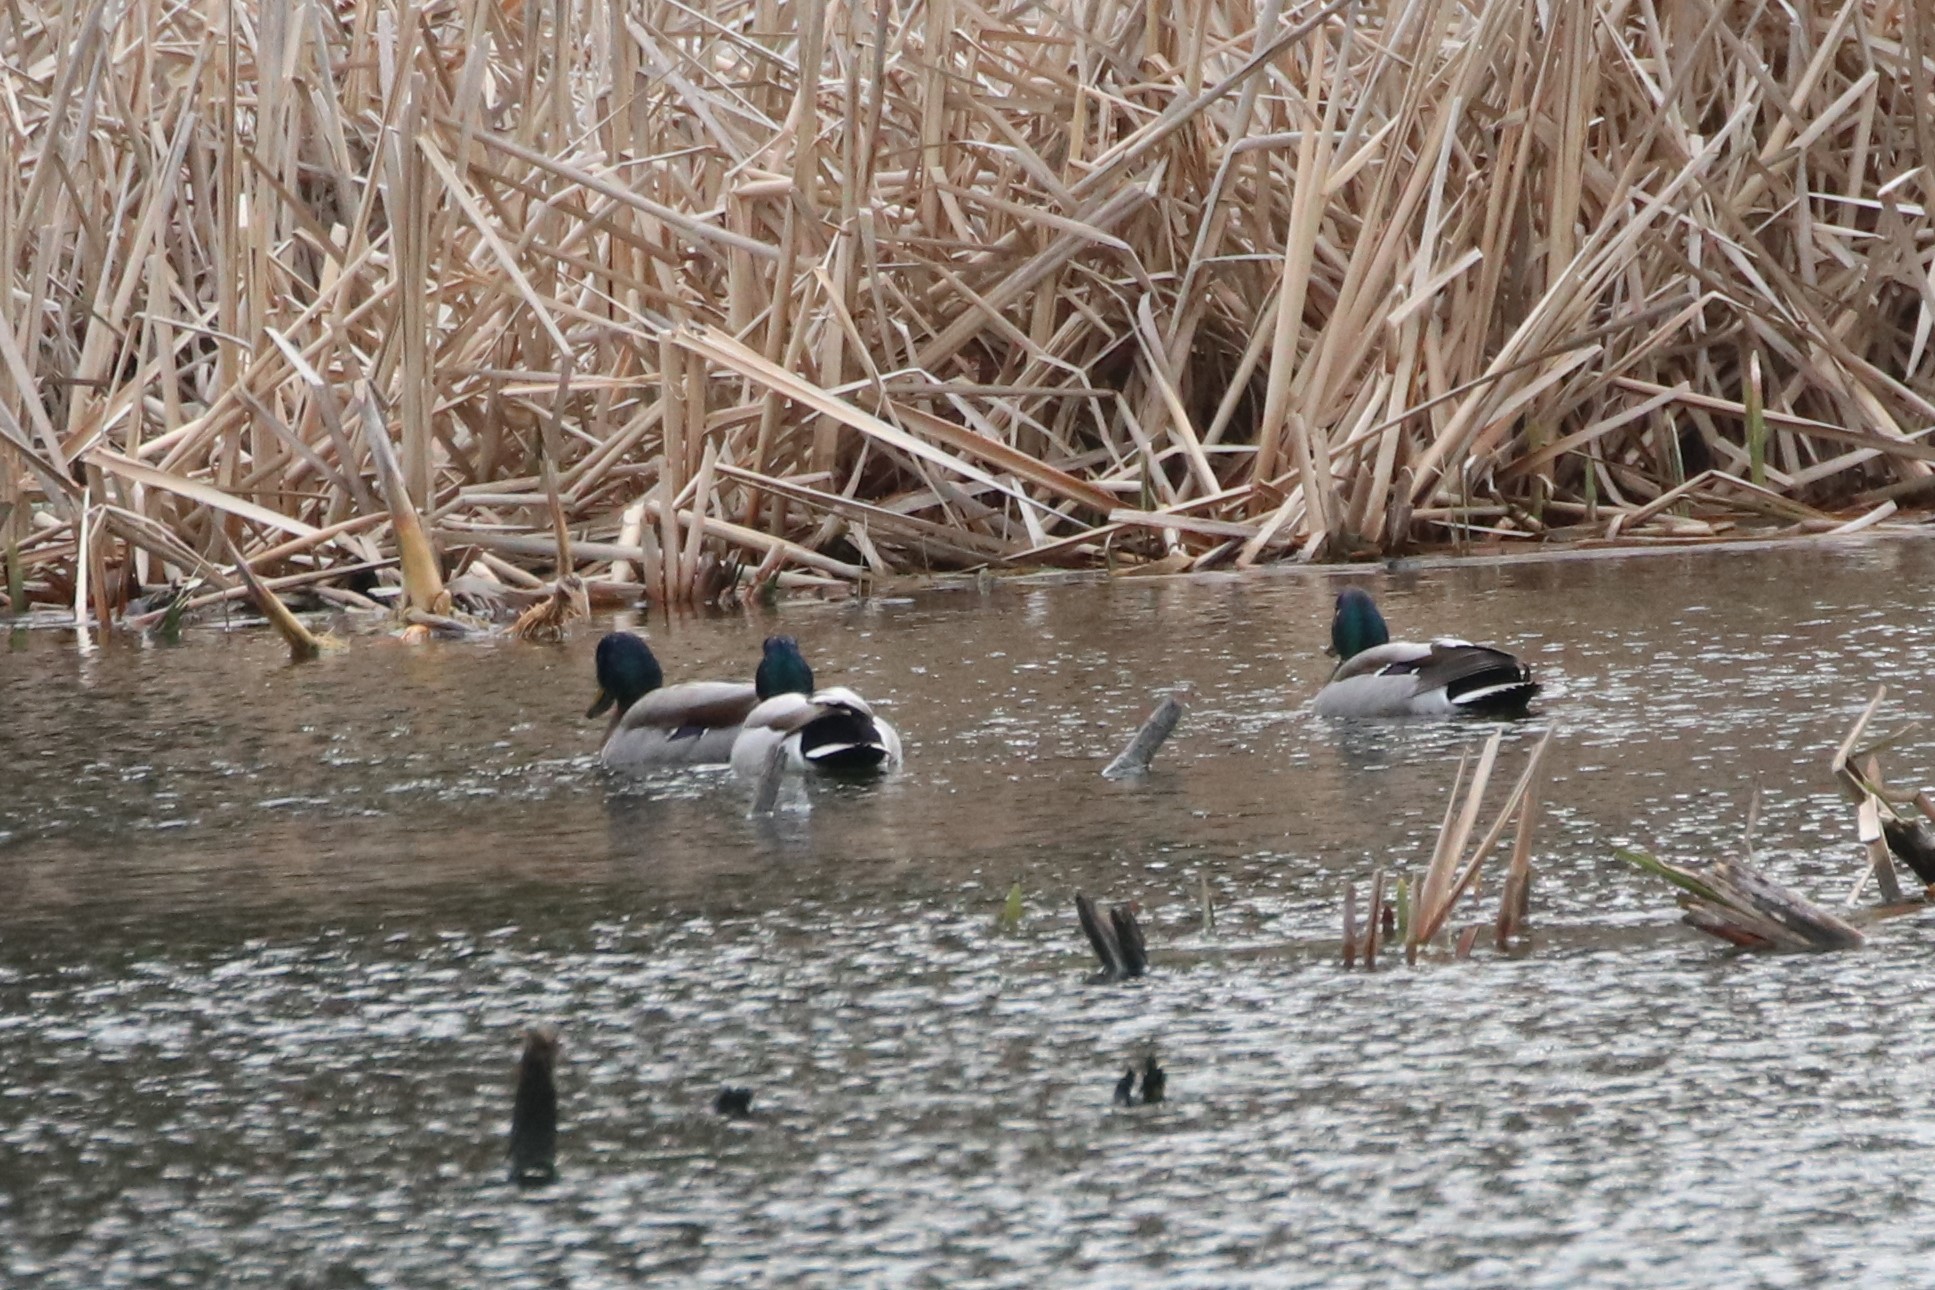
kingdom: Animalia
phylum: Chordata
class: Aves
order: Anseriformes
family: Anatidae
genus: Anas
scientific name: Anas platyrhynchos
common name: Mallard
